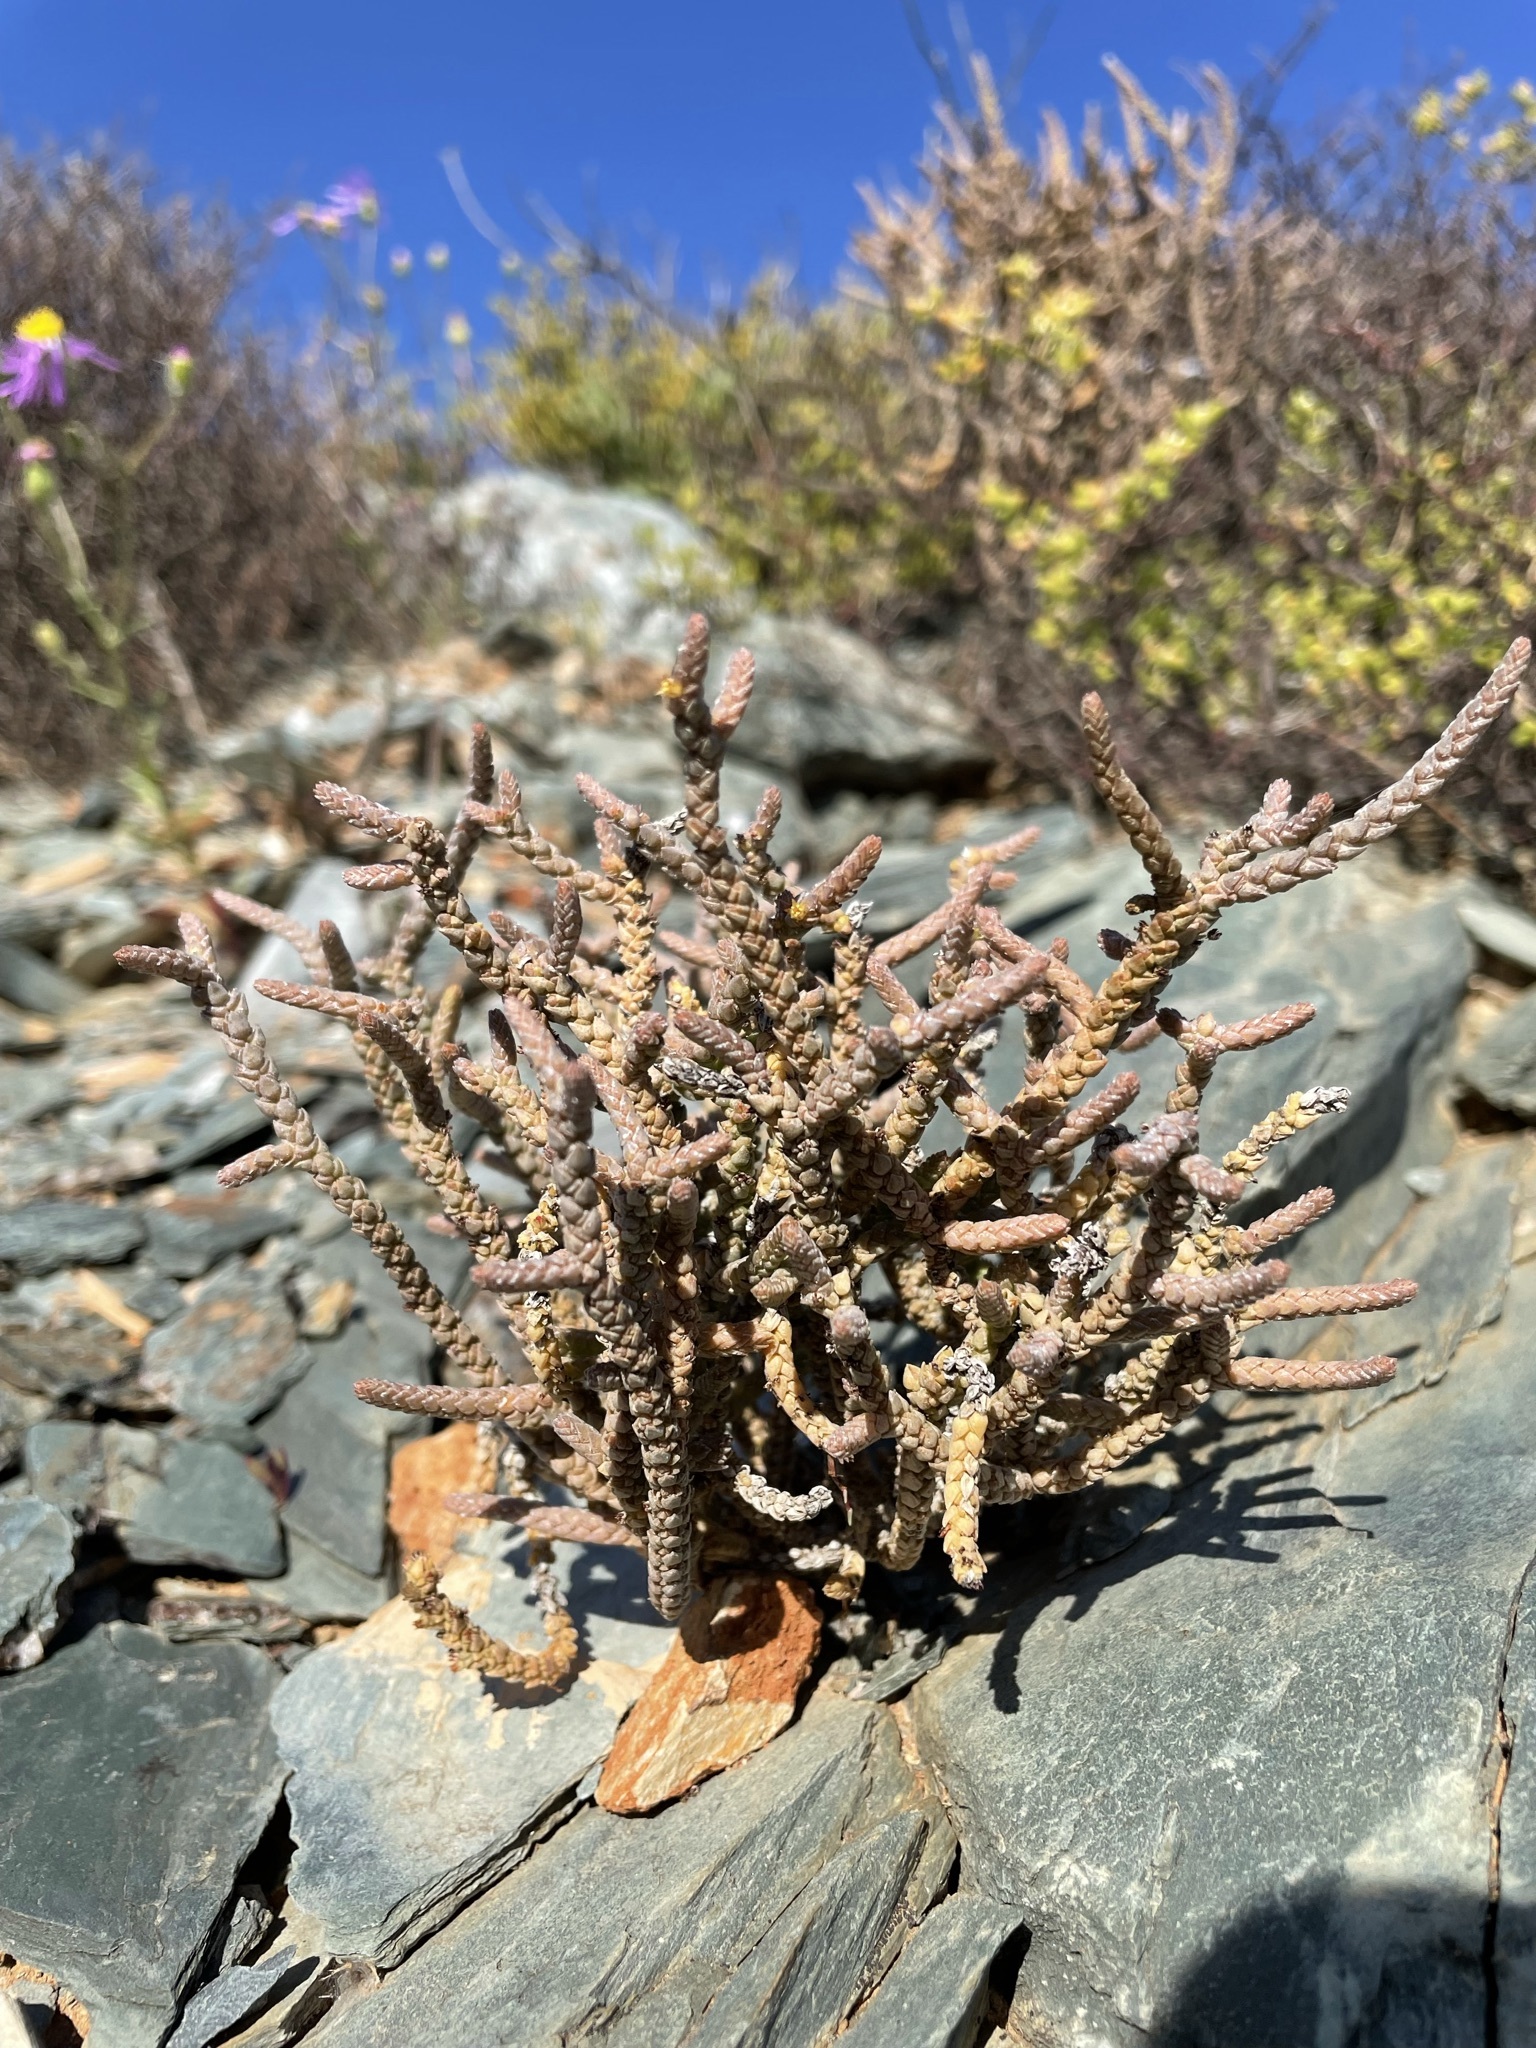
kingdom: Plantae
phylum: Tracheophyta
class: Magnoliopsida
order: Saxifragales
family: Crassulaceae
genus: Crassula
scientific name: Crassula muscosa
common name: Toy-cypress
